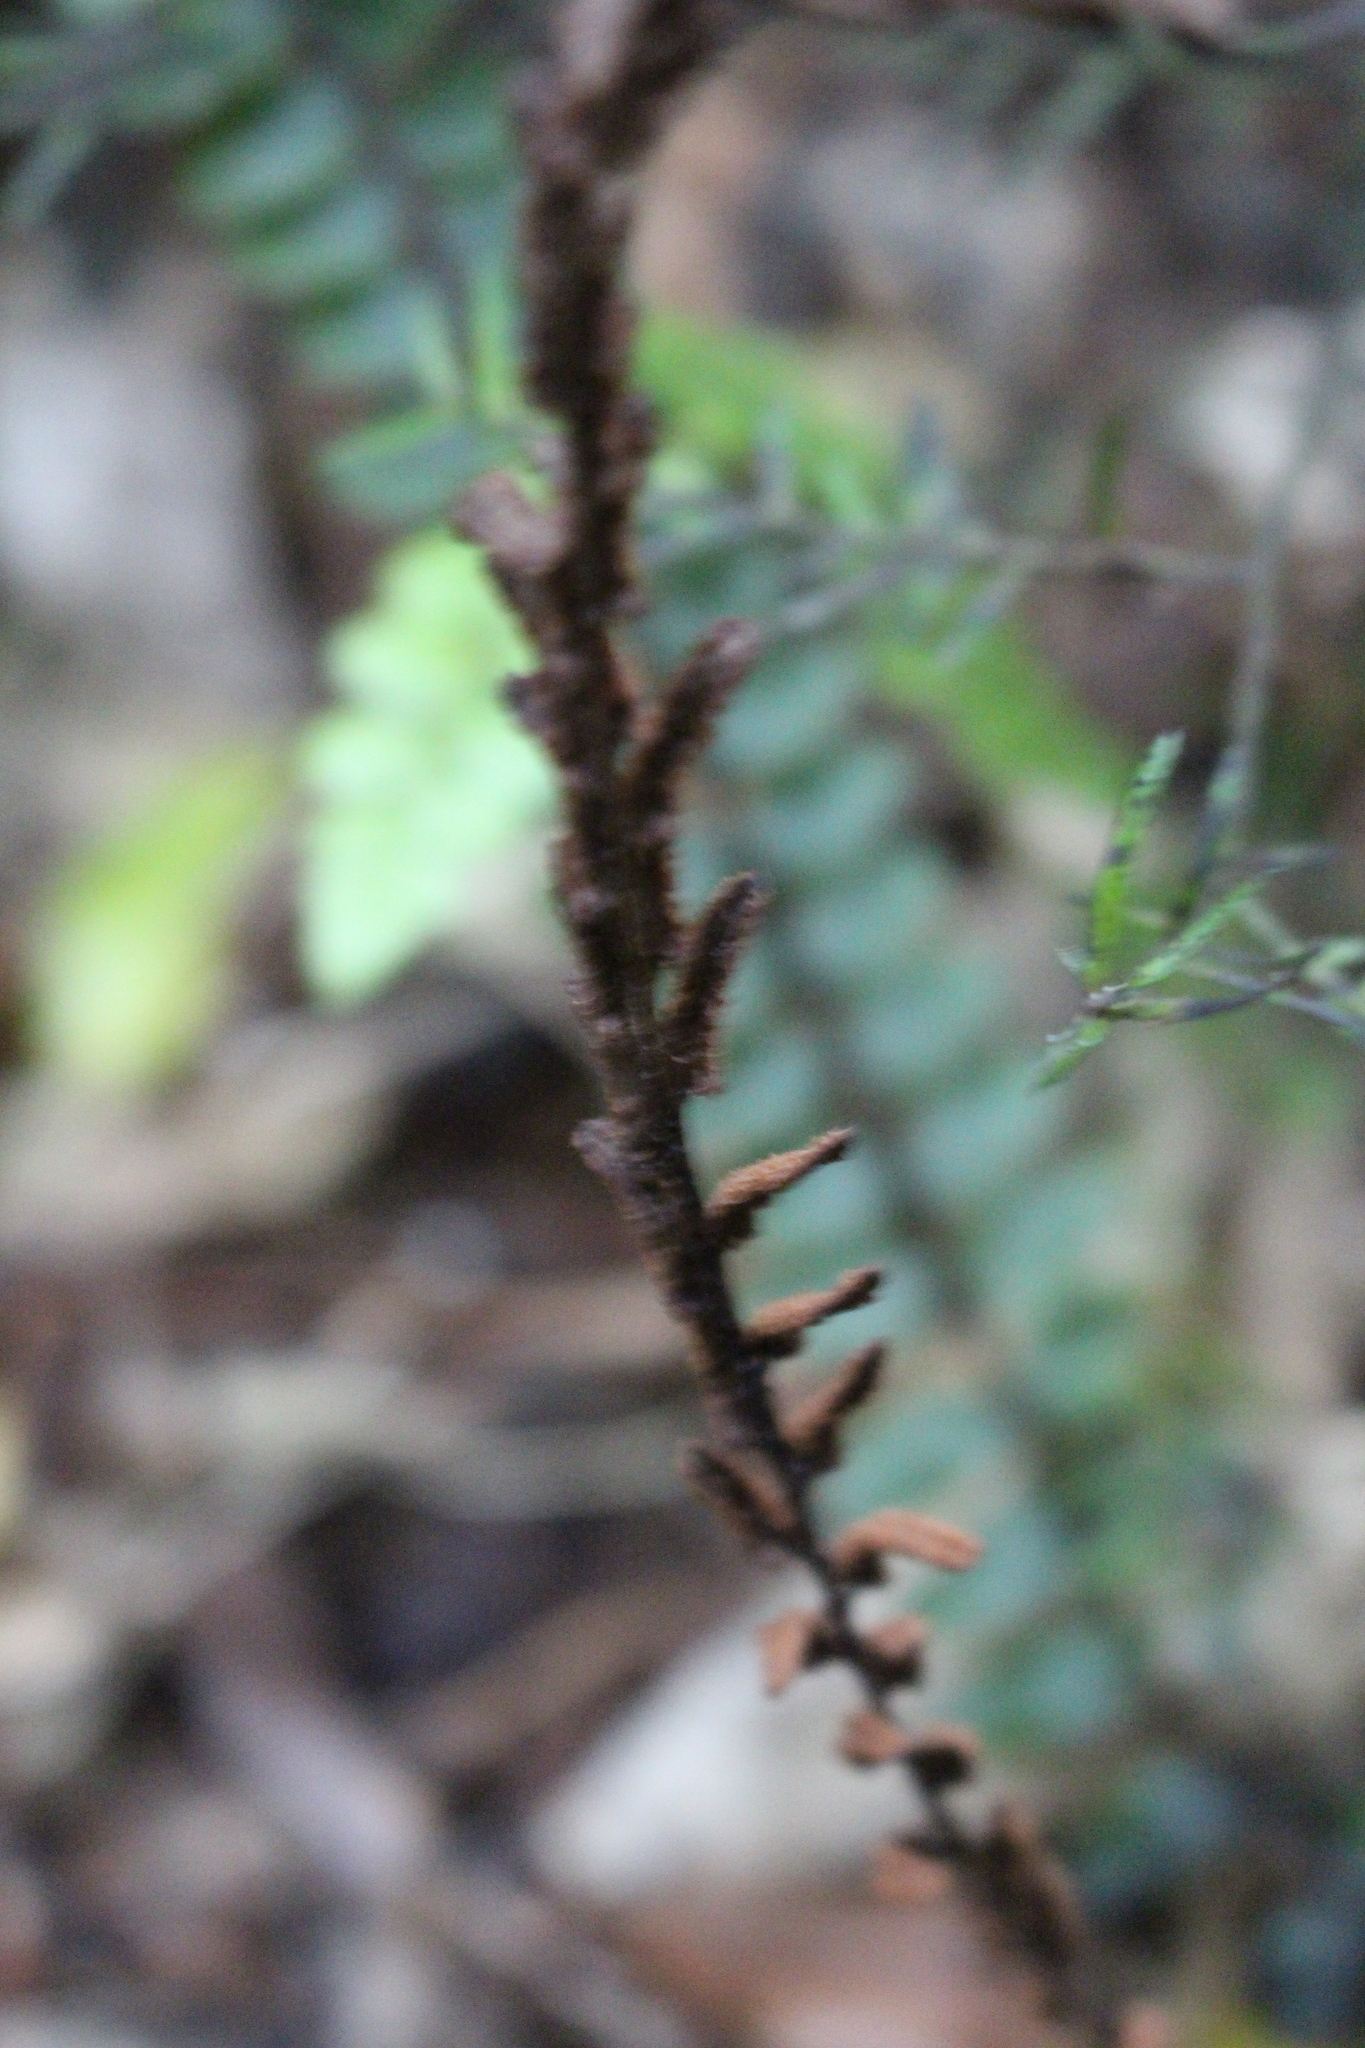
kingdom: Plantae
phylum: Tracheophyta
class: Polypodiopsida
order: Polypodiales
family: Blechnaceae
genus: Cranfillia
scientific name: Cranfillia fluviatilis
